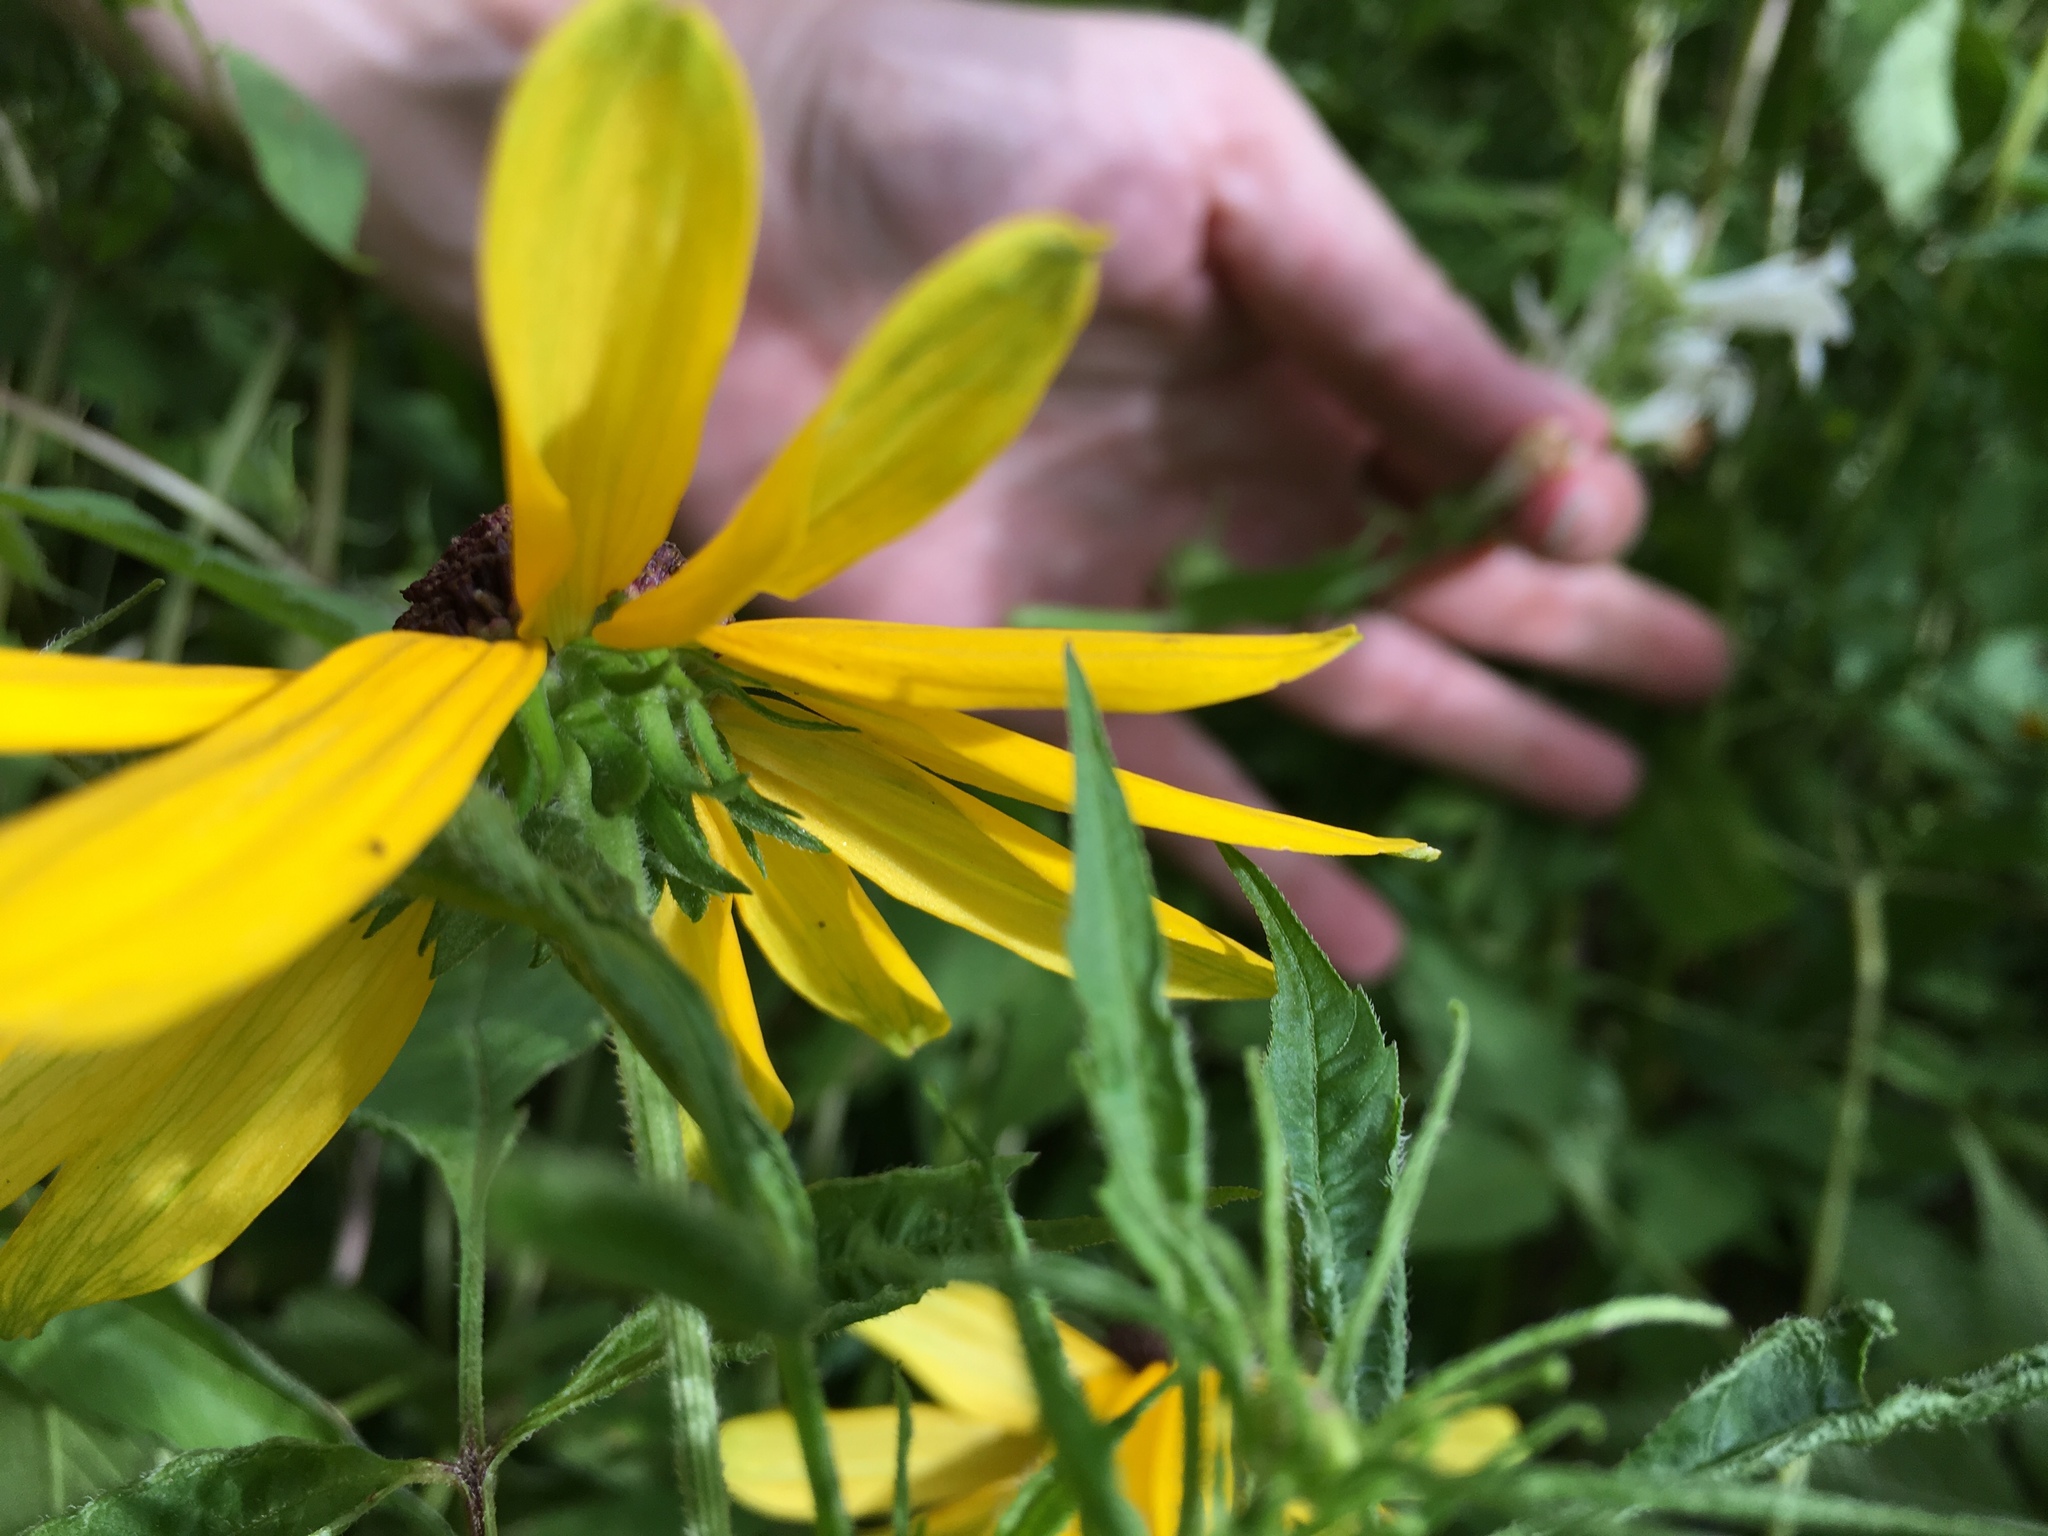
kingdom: Plantae
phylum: Tracheophyta
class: Magnoliopsida
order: Asterales
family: Asteraceae
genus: Rudbeckia
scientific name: Rudbeckia hirta
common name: Black-eyed-susan
